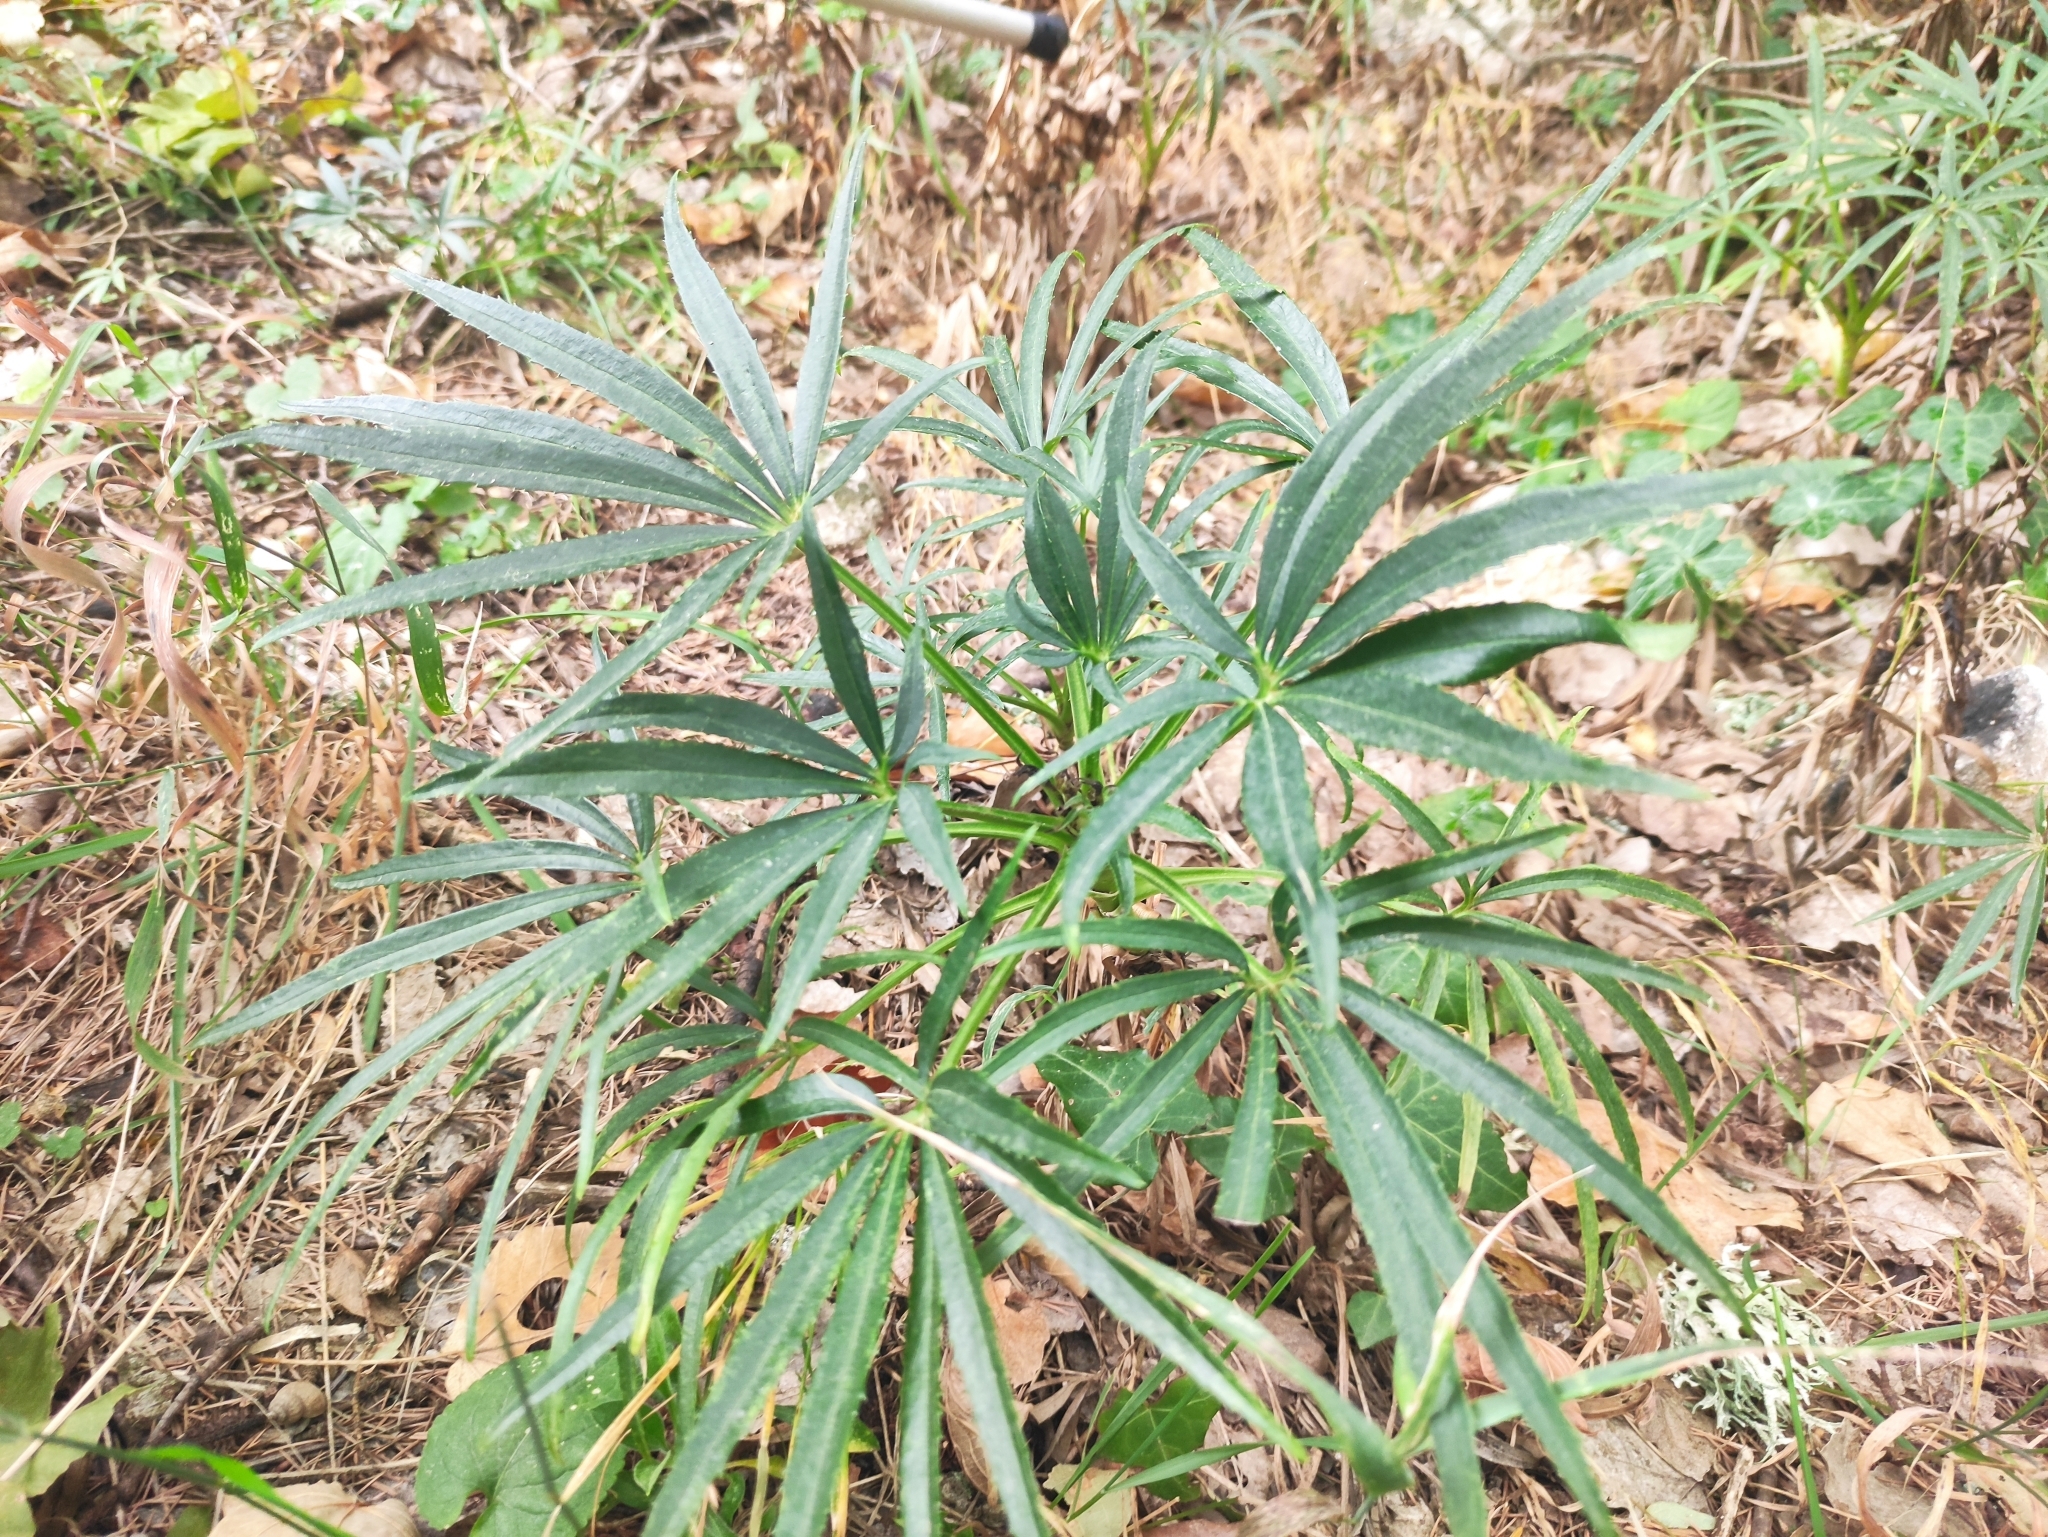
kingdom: Plantae
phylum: Tracheophyta
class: Magnoliopsida
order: Ranunculales
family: Ranunculaceae
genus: Helleborus
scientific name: Helleborus foetidus
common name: Stinking hellebore
